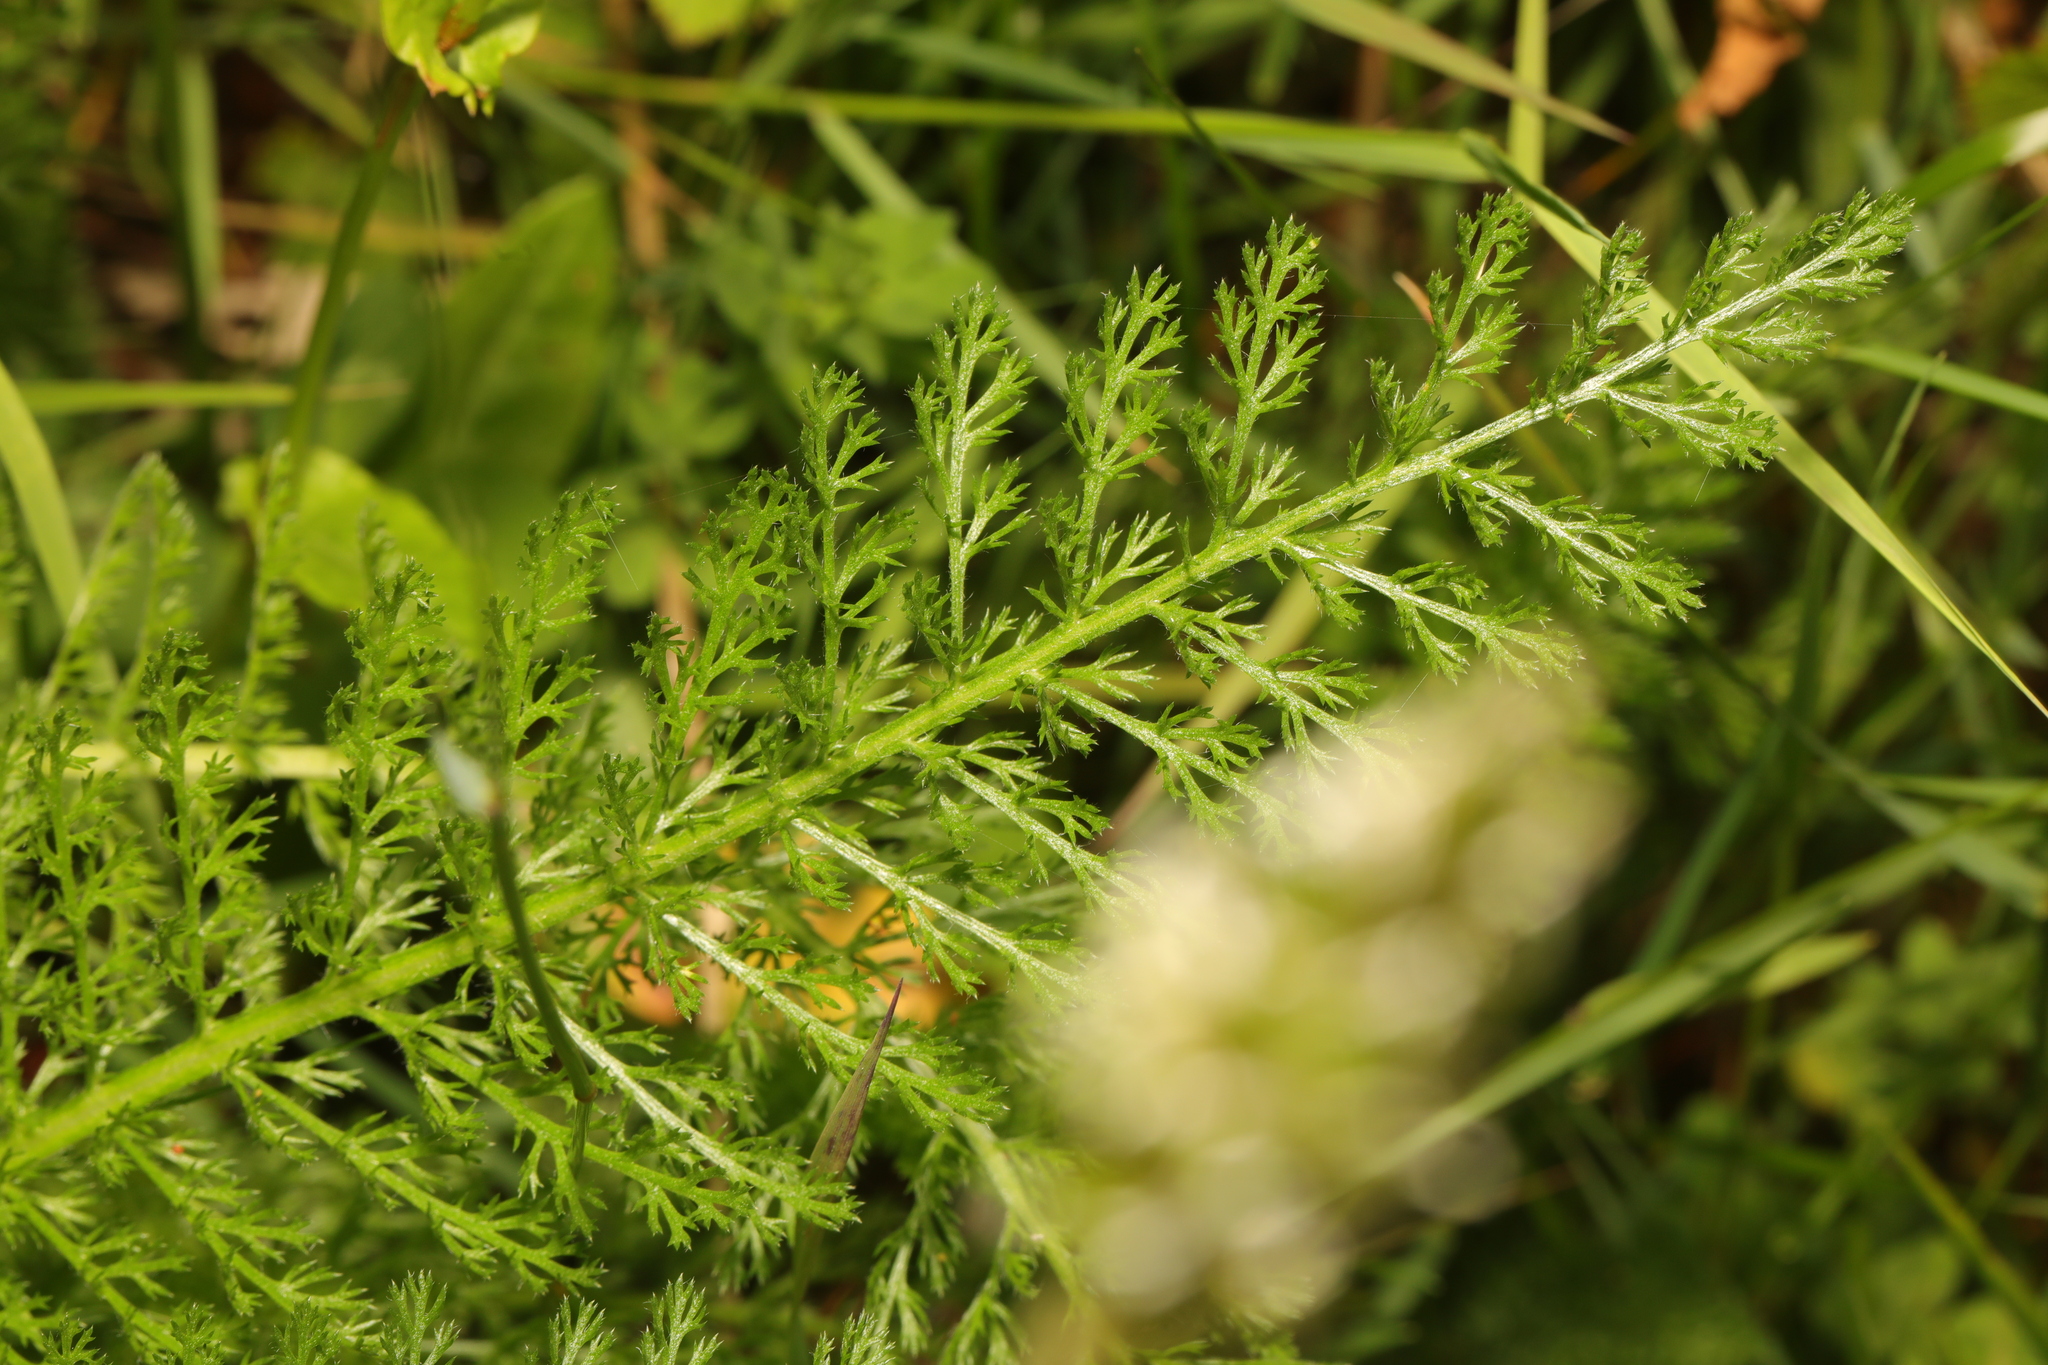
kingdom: Plantae
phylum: Tracheophyta
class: Magnoliopsida
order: Asterales
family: Asteraceae
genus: Achillea
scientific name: Achillea millefolium
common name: Yarrow
